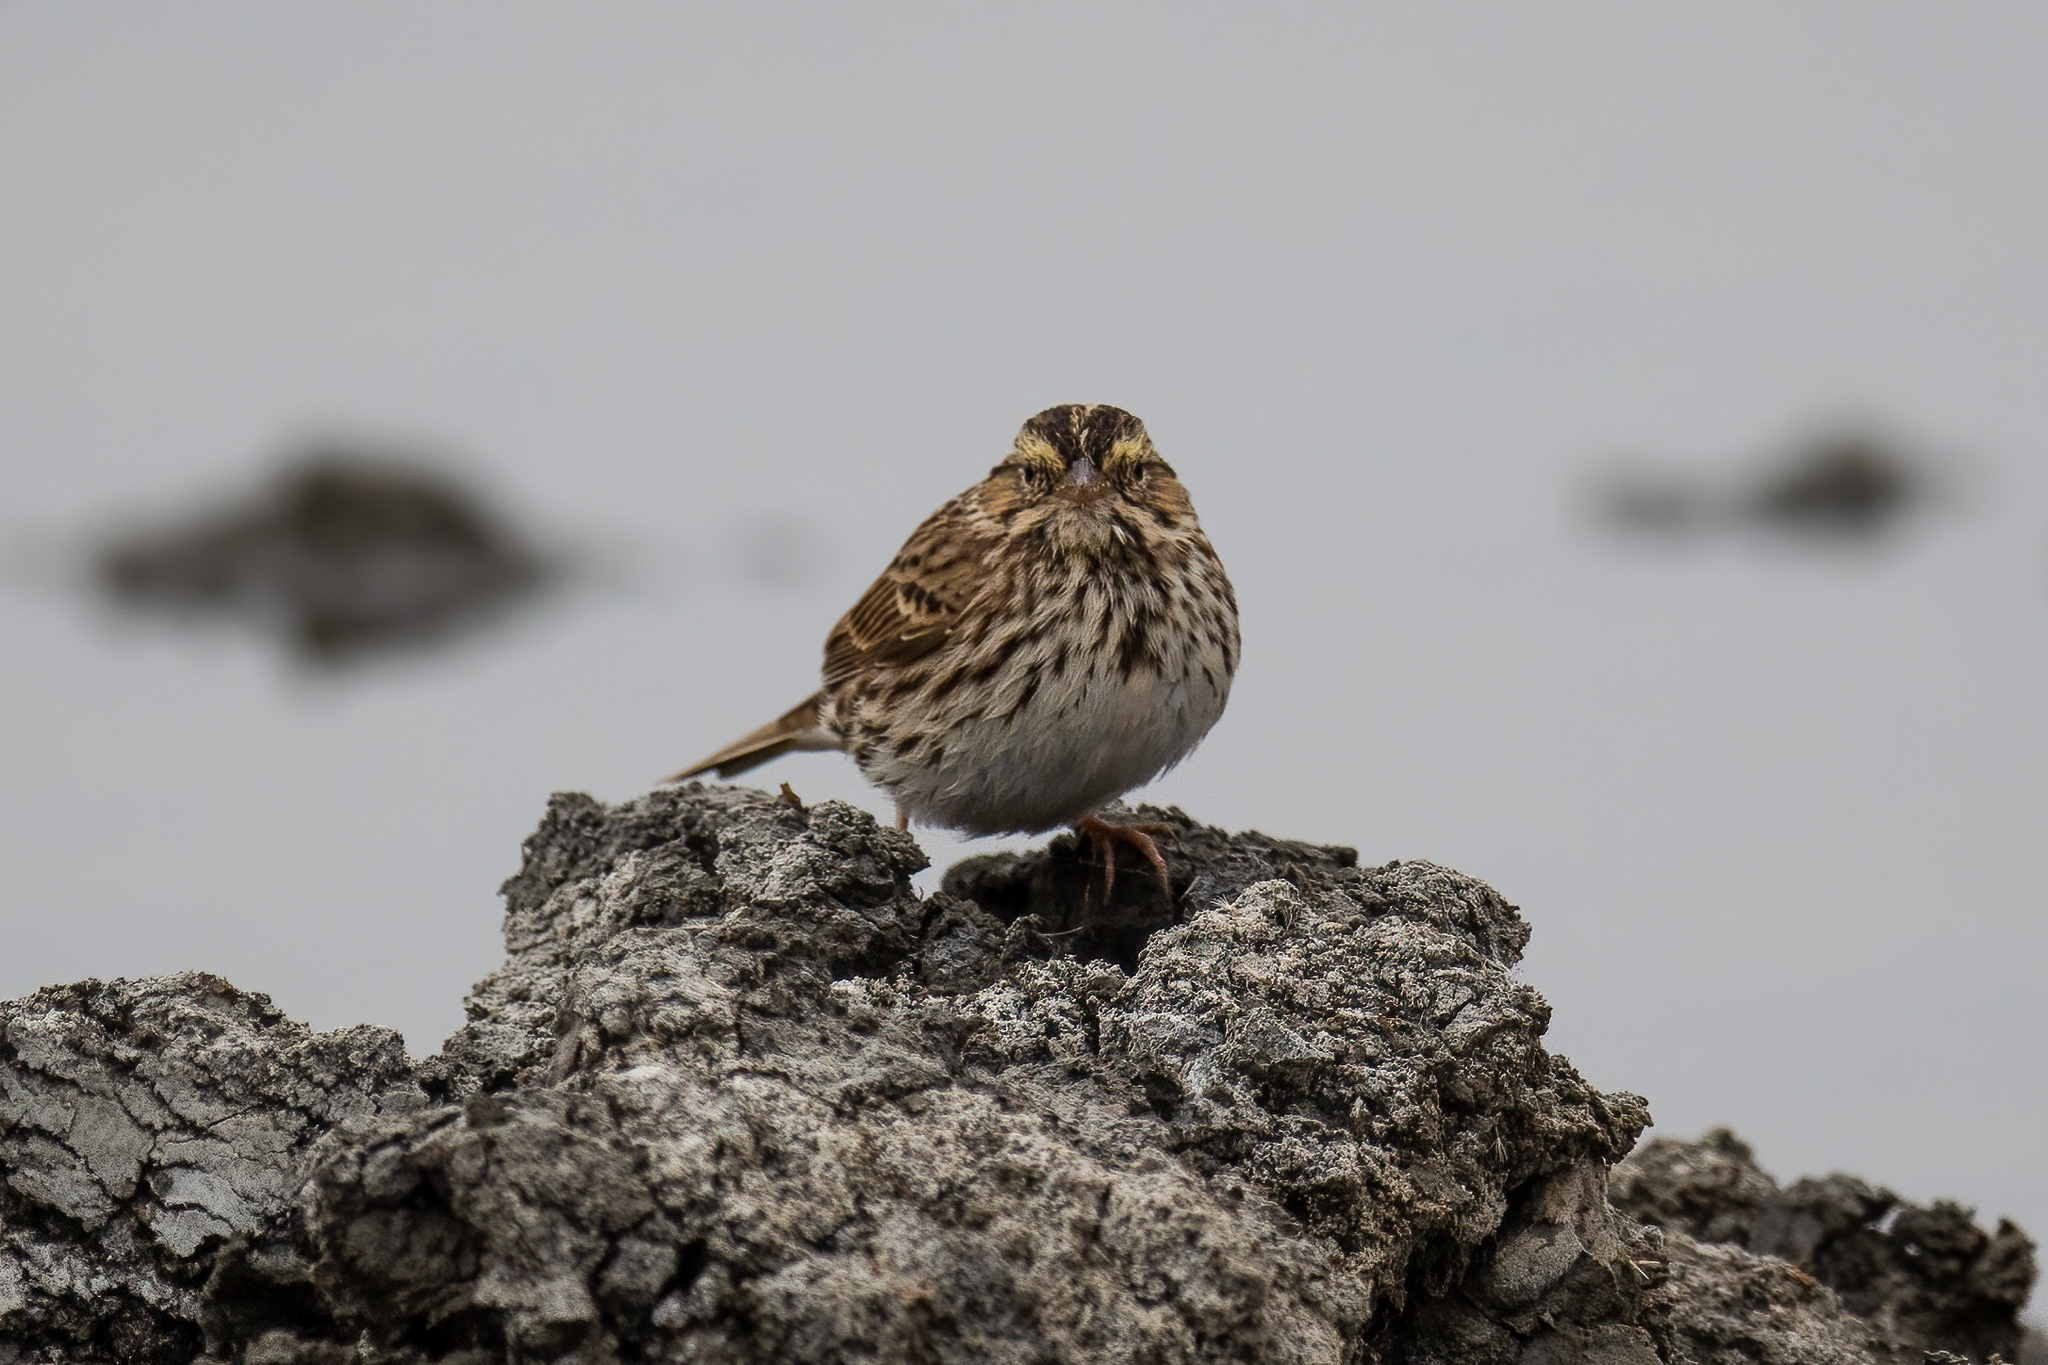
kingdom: Animalia
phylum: Chordata
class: Aves
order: Passeriformes
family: Passerellidae
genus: Passerculus
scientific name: Passerculus sandwichensis
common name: Savannah sparrow
